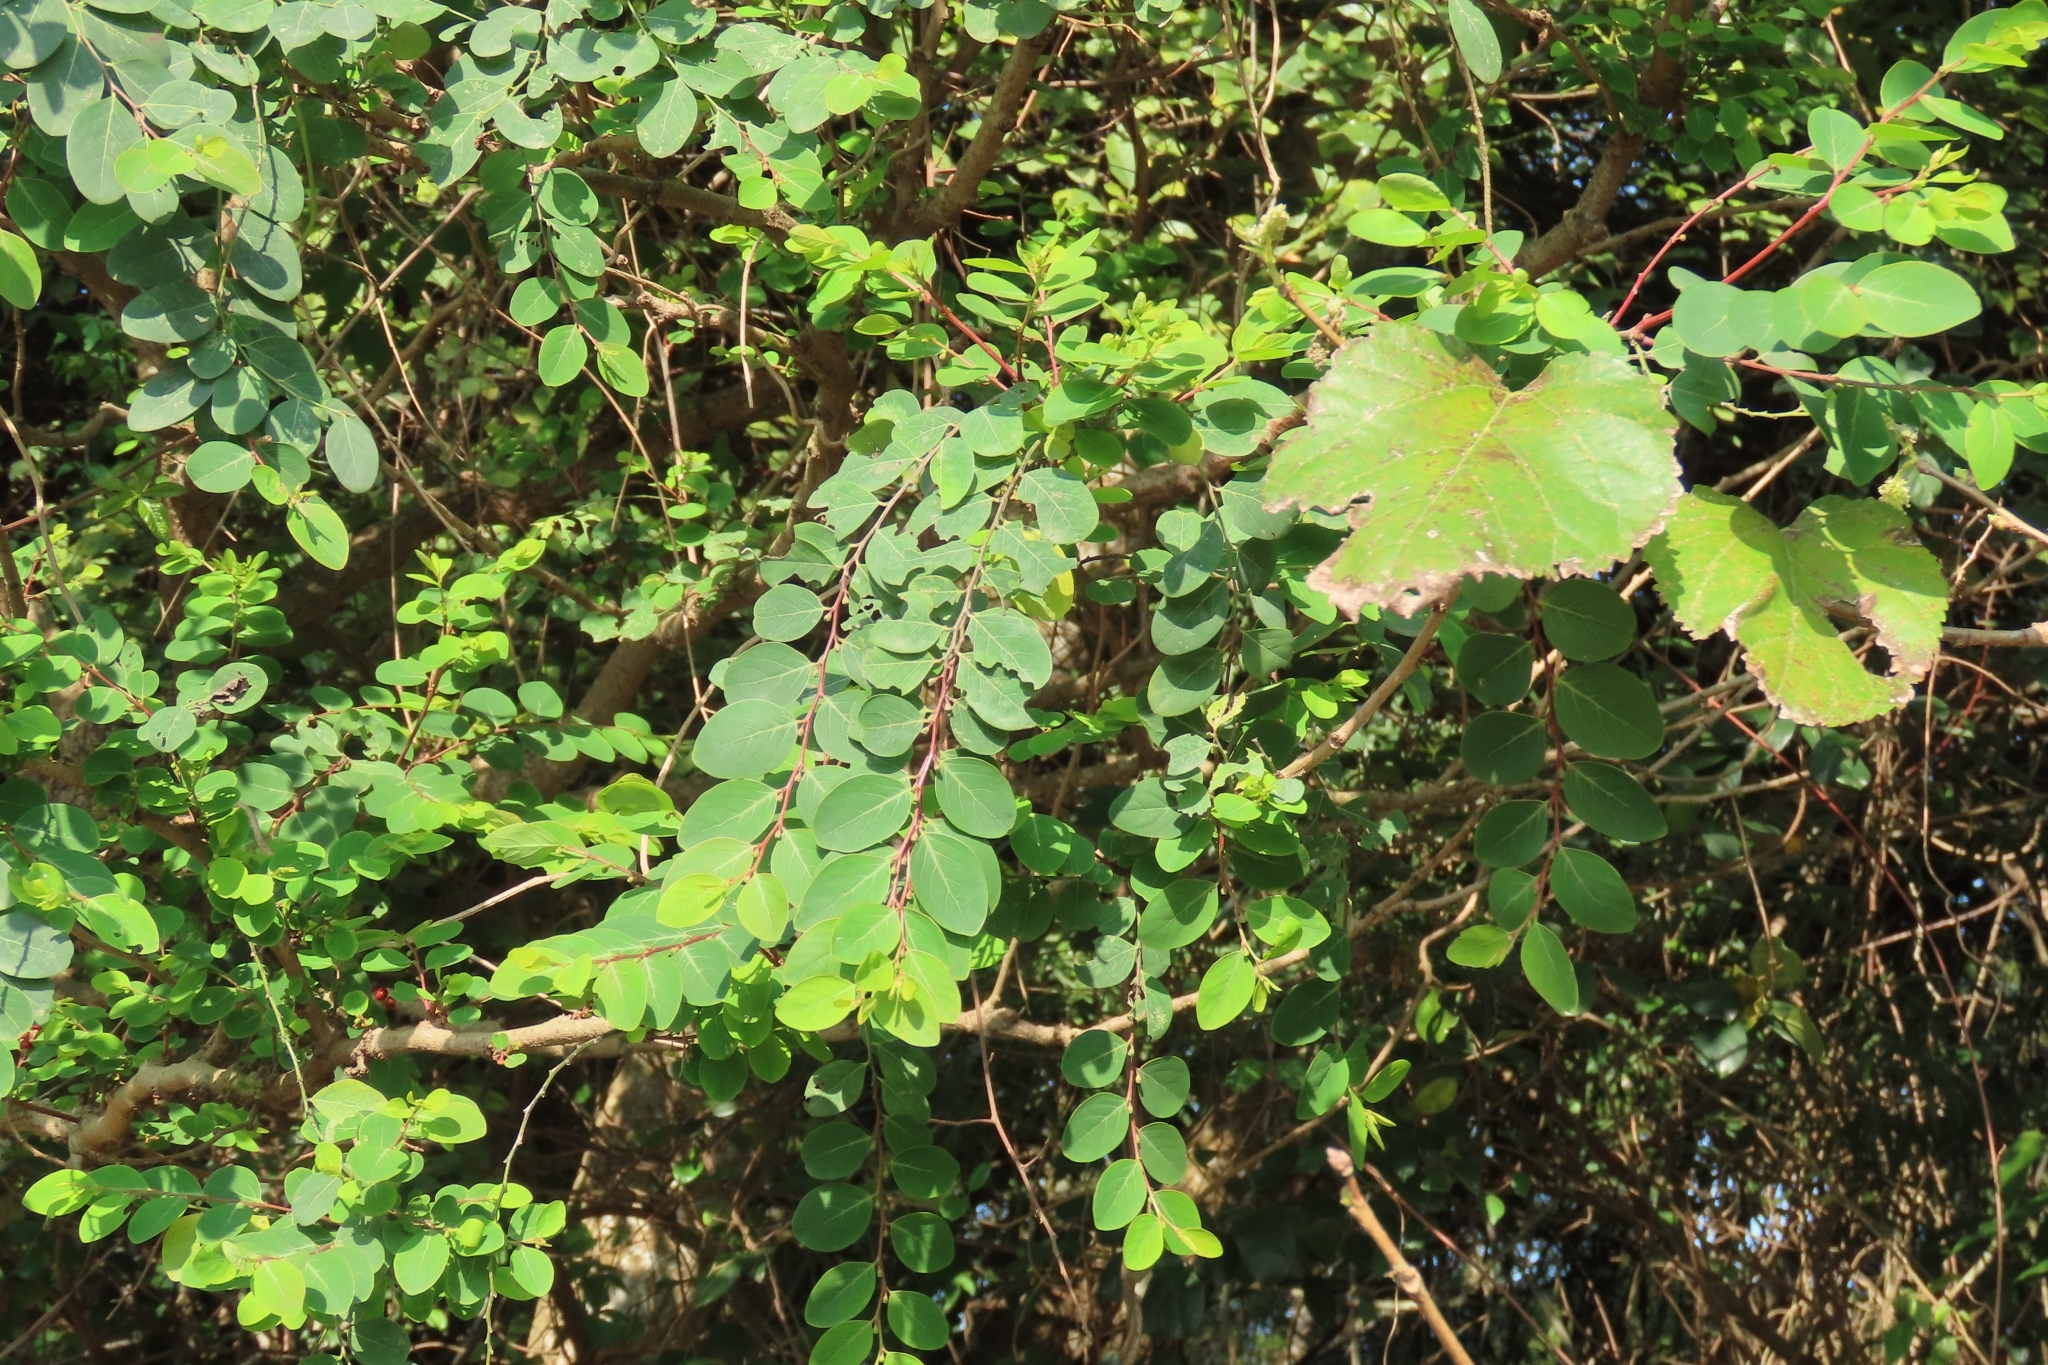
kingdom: Plantae
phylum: Tracheophyta
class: Magnoliopsida
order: Malpighiales
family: Phyllanthaceae
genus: Breynia
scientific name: Breynia vitis-idaea
